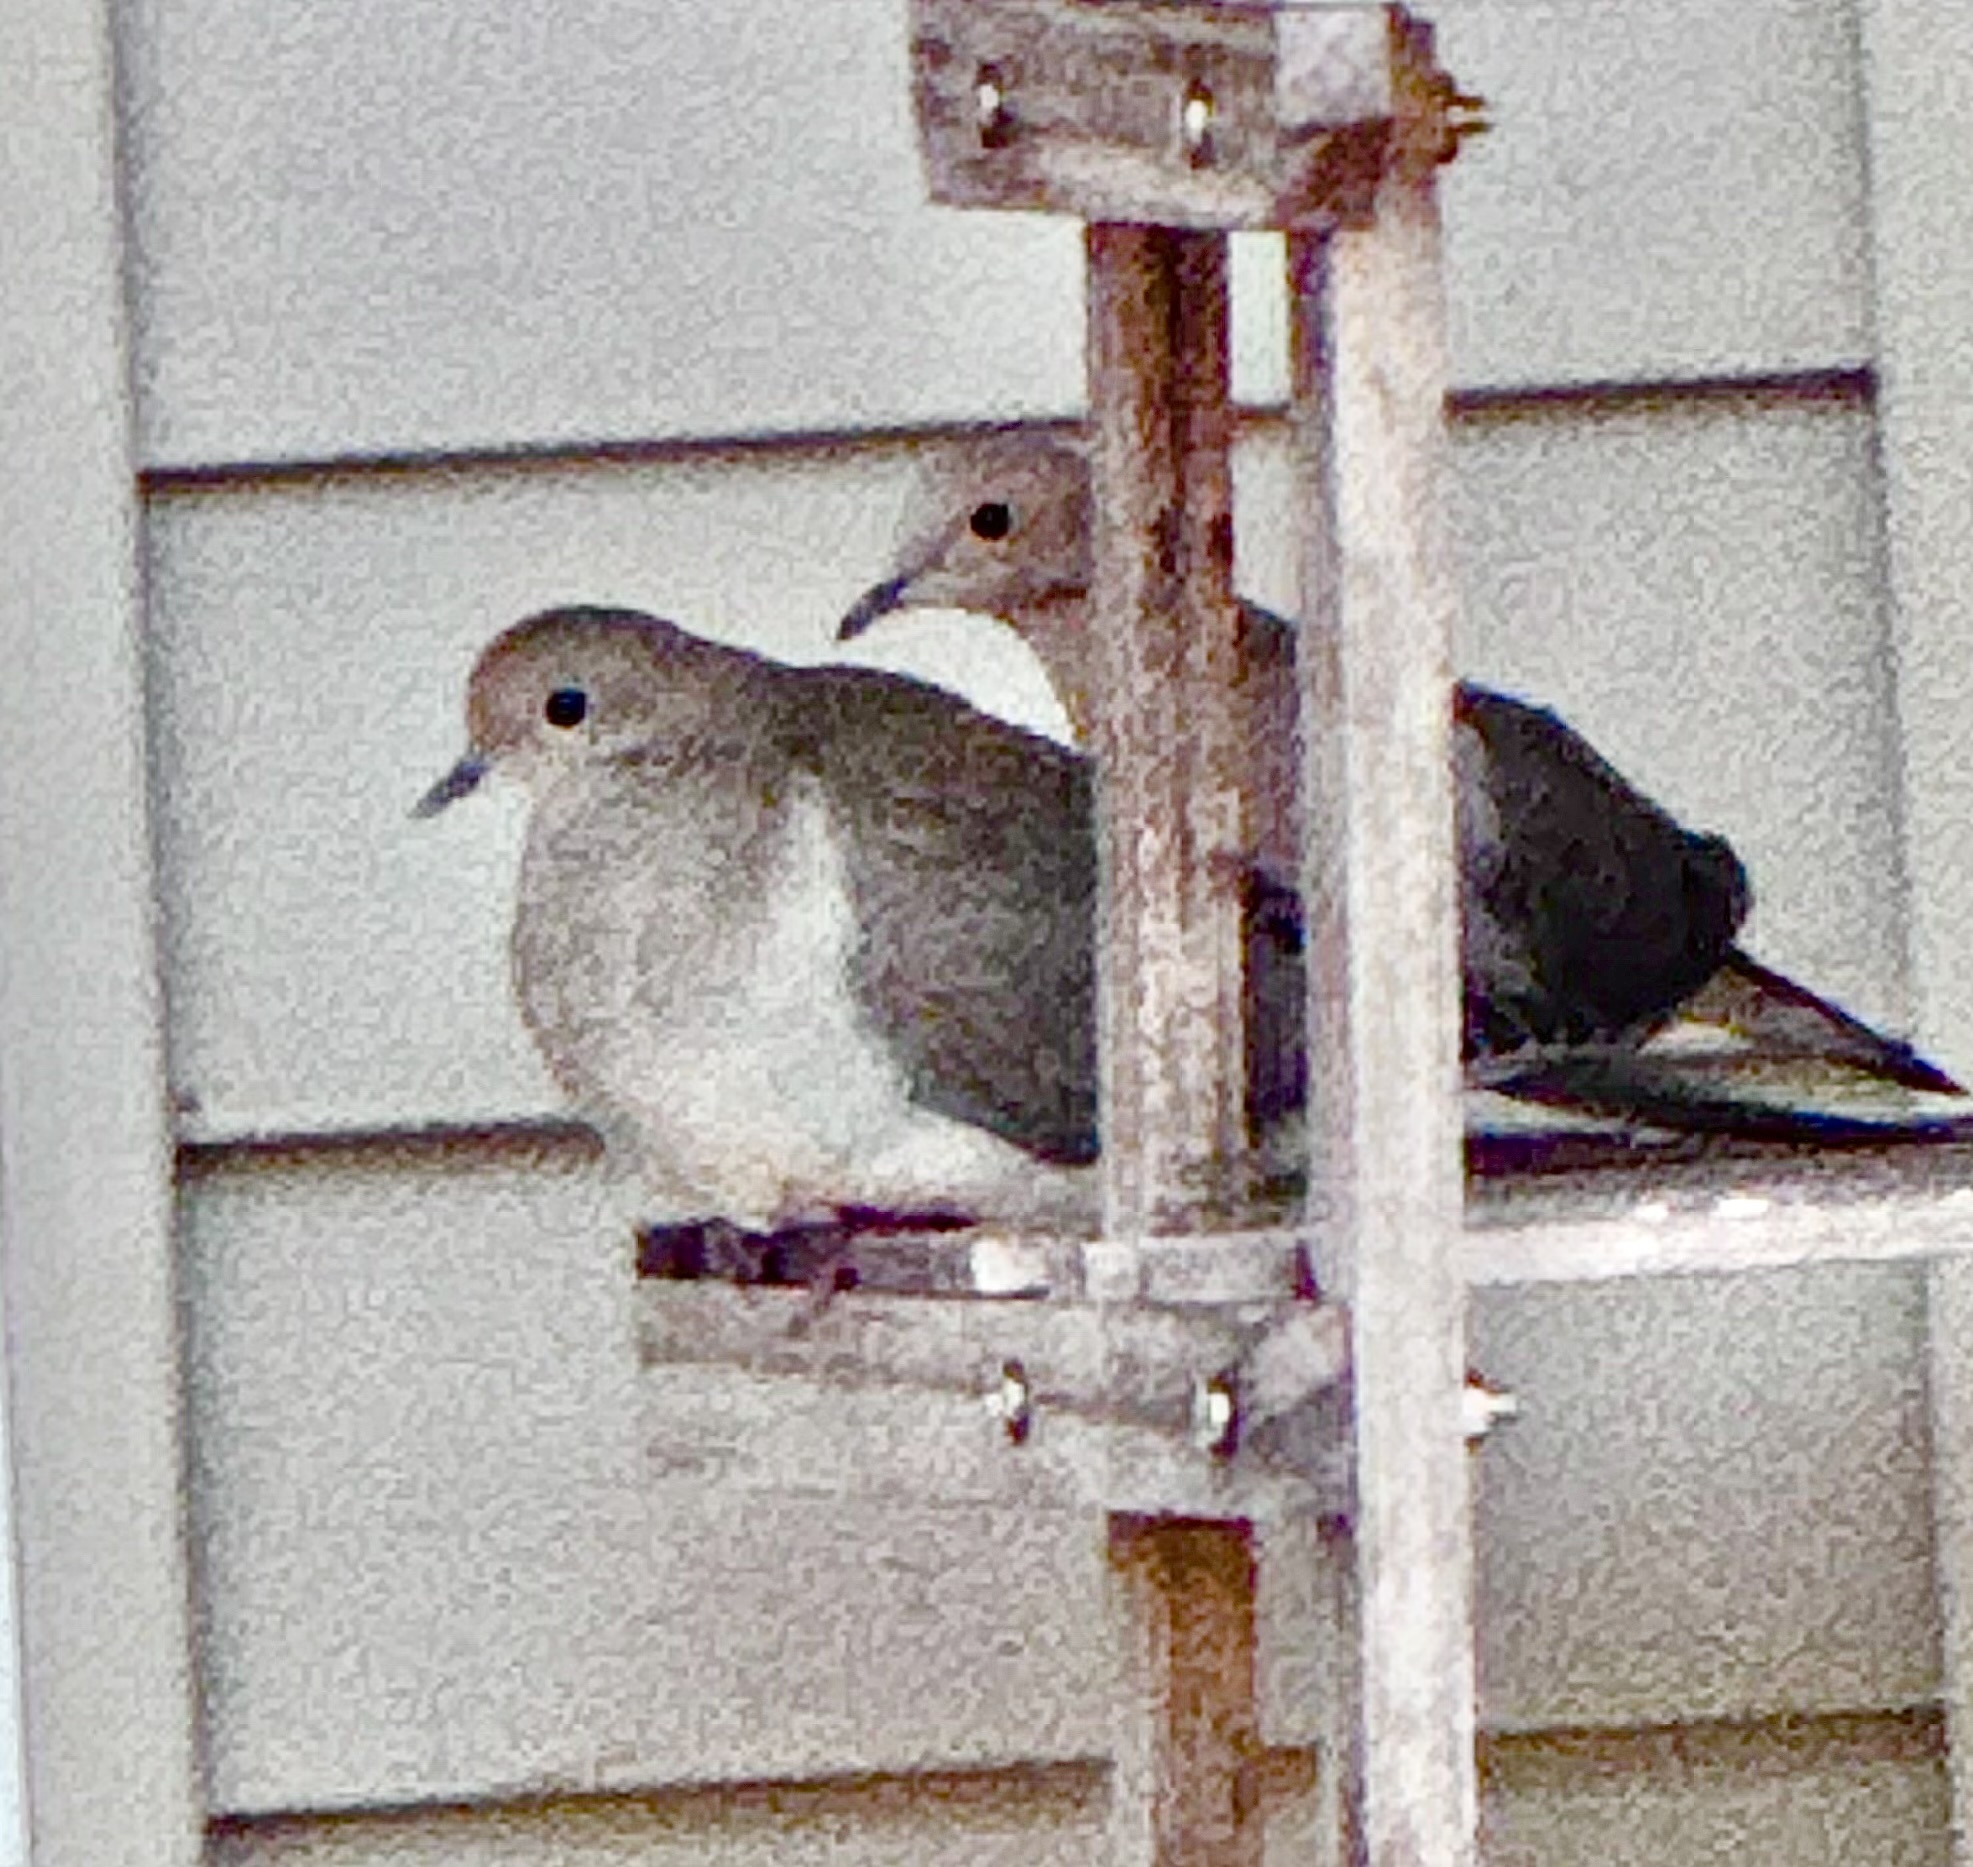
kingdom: Animalia
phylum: Chordata
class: Aves
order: Columbiformes
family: Columbidae
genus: Zenaida
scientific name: Zenaida macroura
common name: Mourning dove
